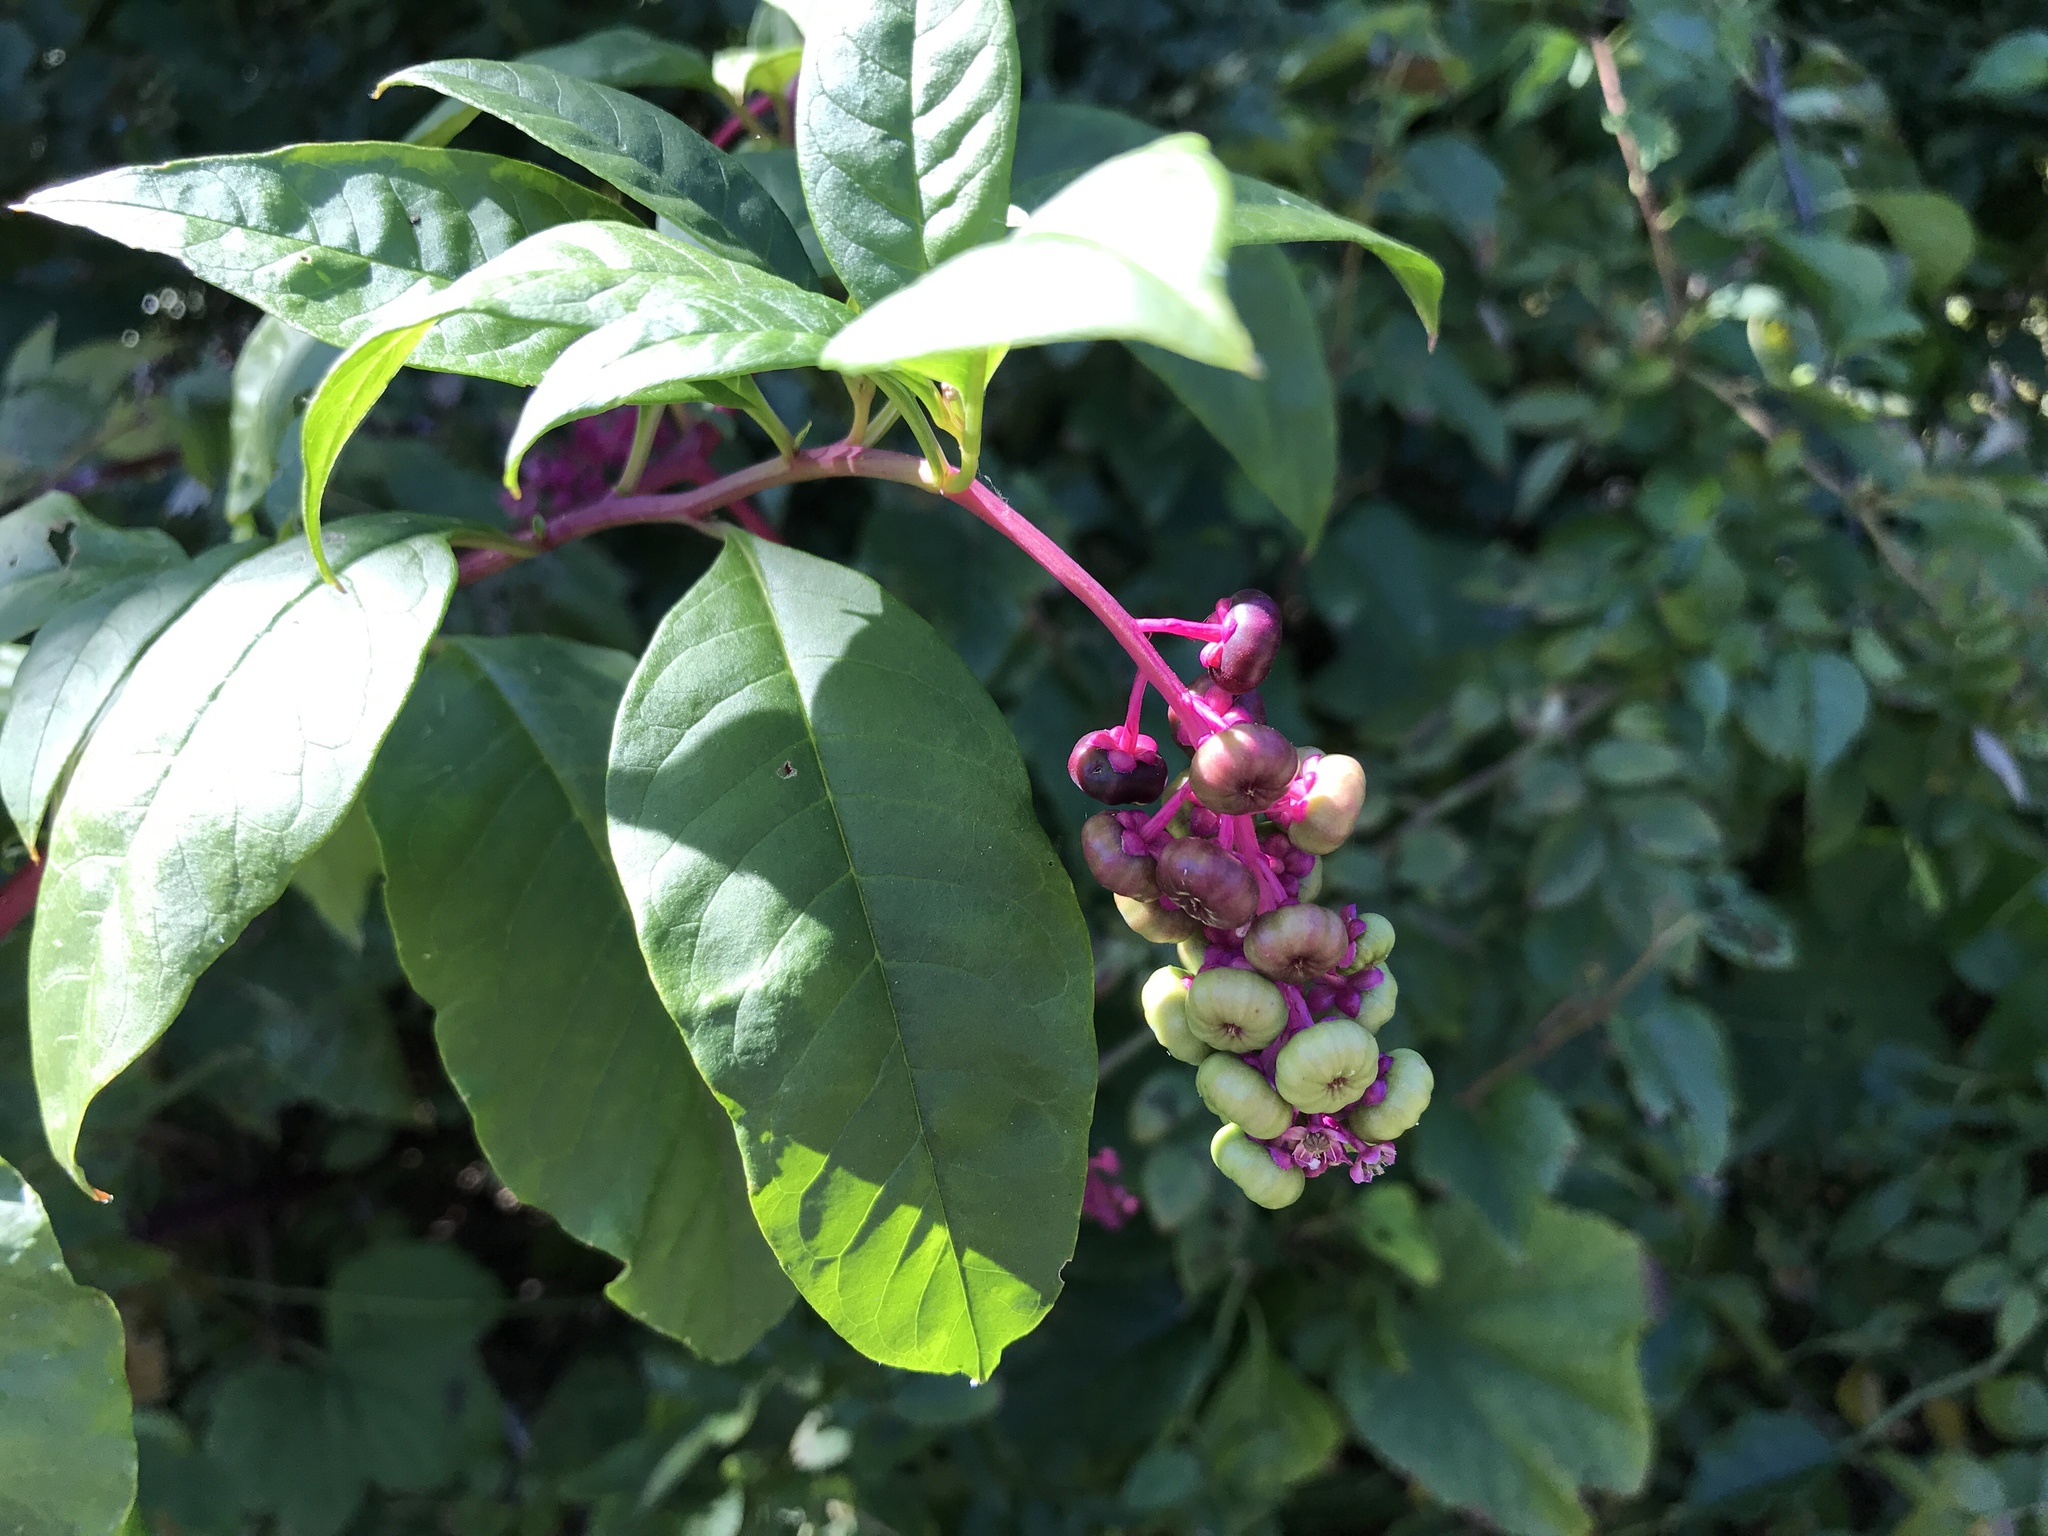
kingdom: Plantae
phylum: Tracheophyta
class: Magnoliopsida
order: Caryophyllales
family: Phytolaccaceae
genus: Phytolacca
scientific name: Phytolacca americana
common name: American pokeweed
